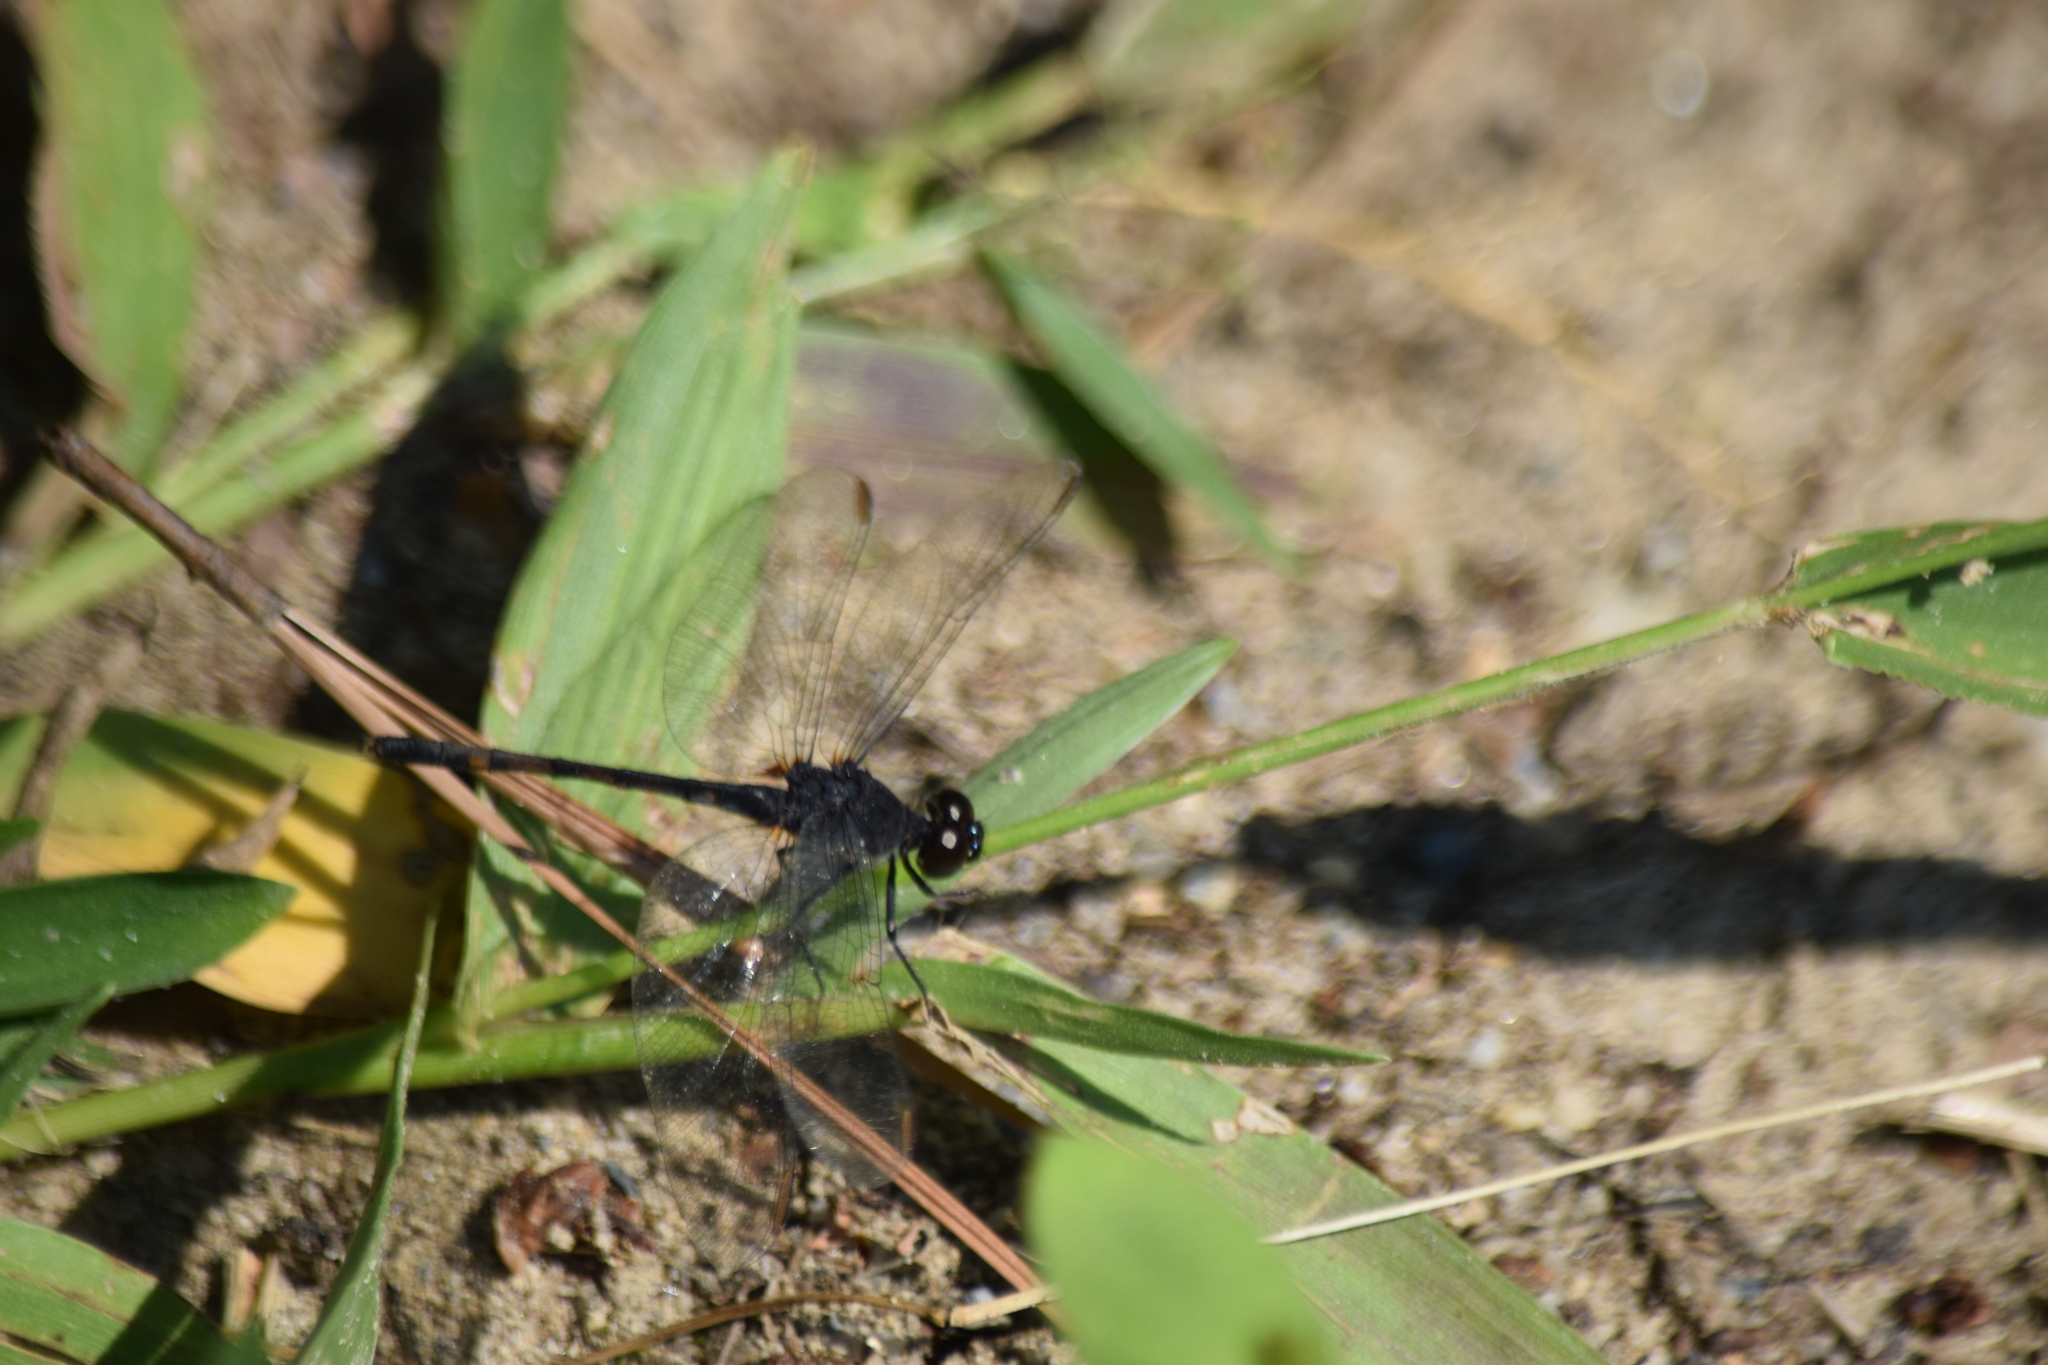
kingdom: Animalia
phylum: Arthropoda
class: Insecta
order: Odonata
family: Libellulidae
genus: Erythrodiplax
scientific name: Erythrodiplax berenice
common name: Seaside dragonlet
